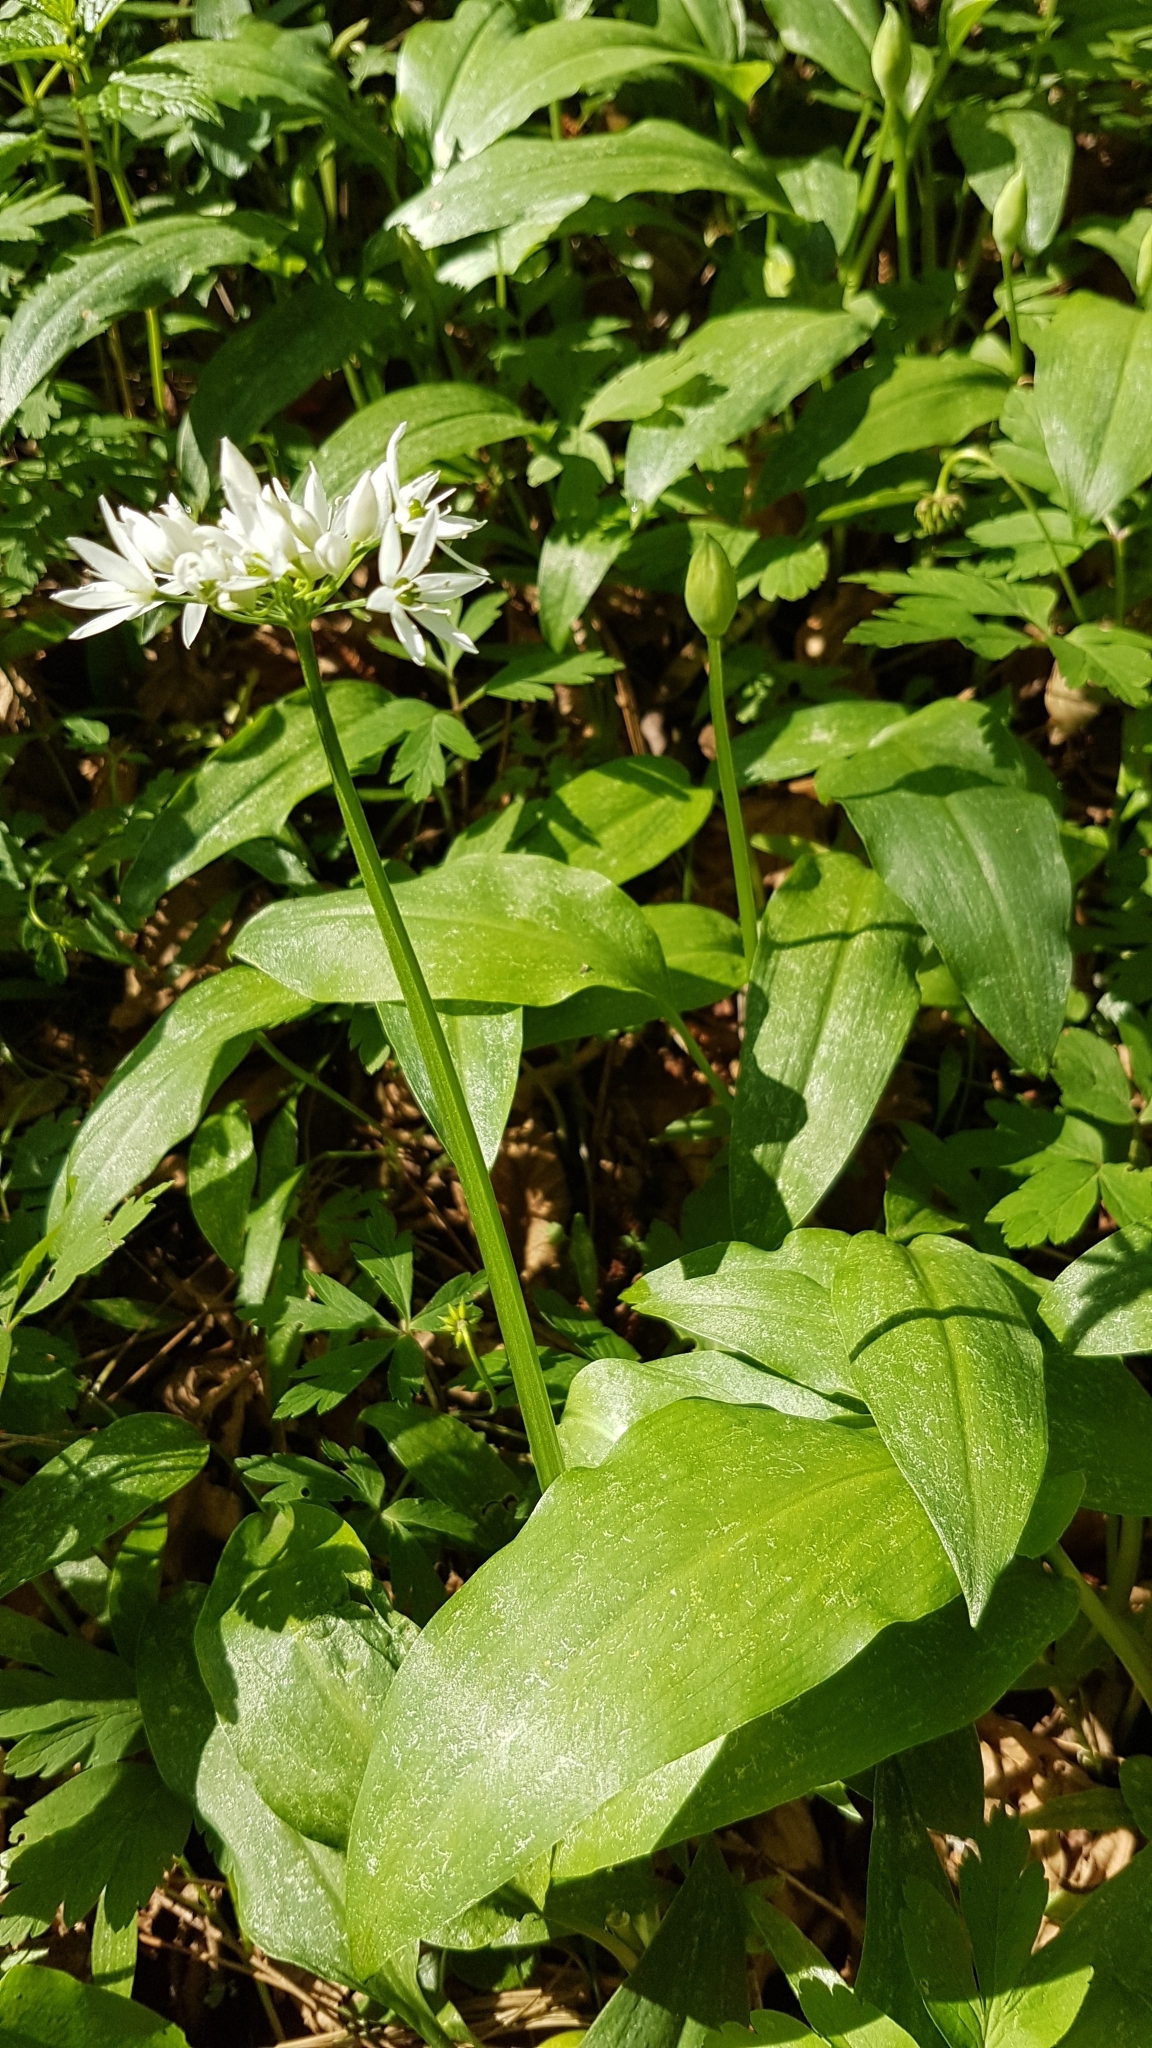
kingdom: Plantae
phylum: Tracheophyta
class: Liliopsida
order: Asparagales
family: Amaryllidaceae
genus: Allium
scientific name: Allium ursinum
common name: Ramsons
